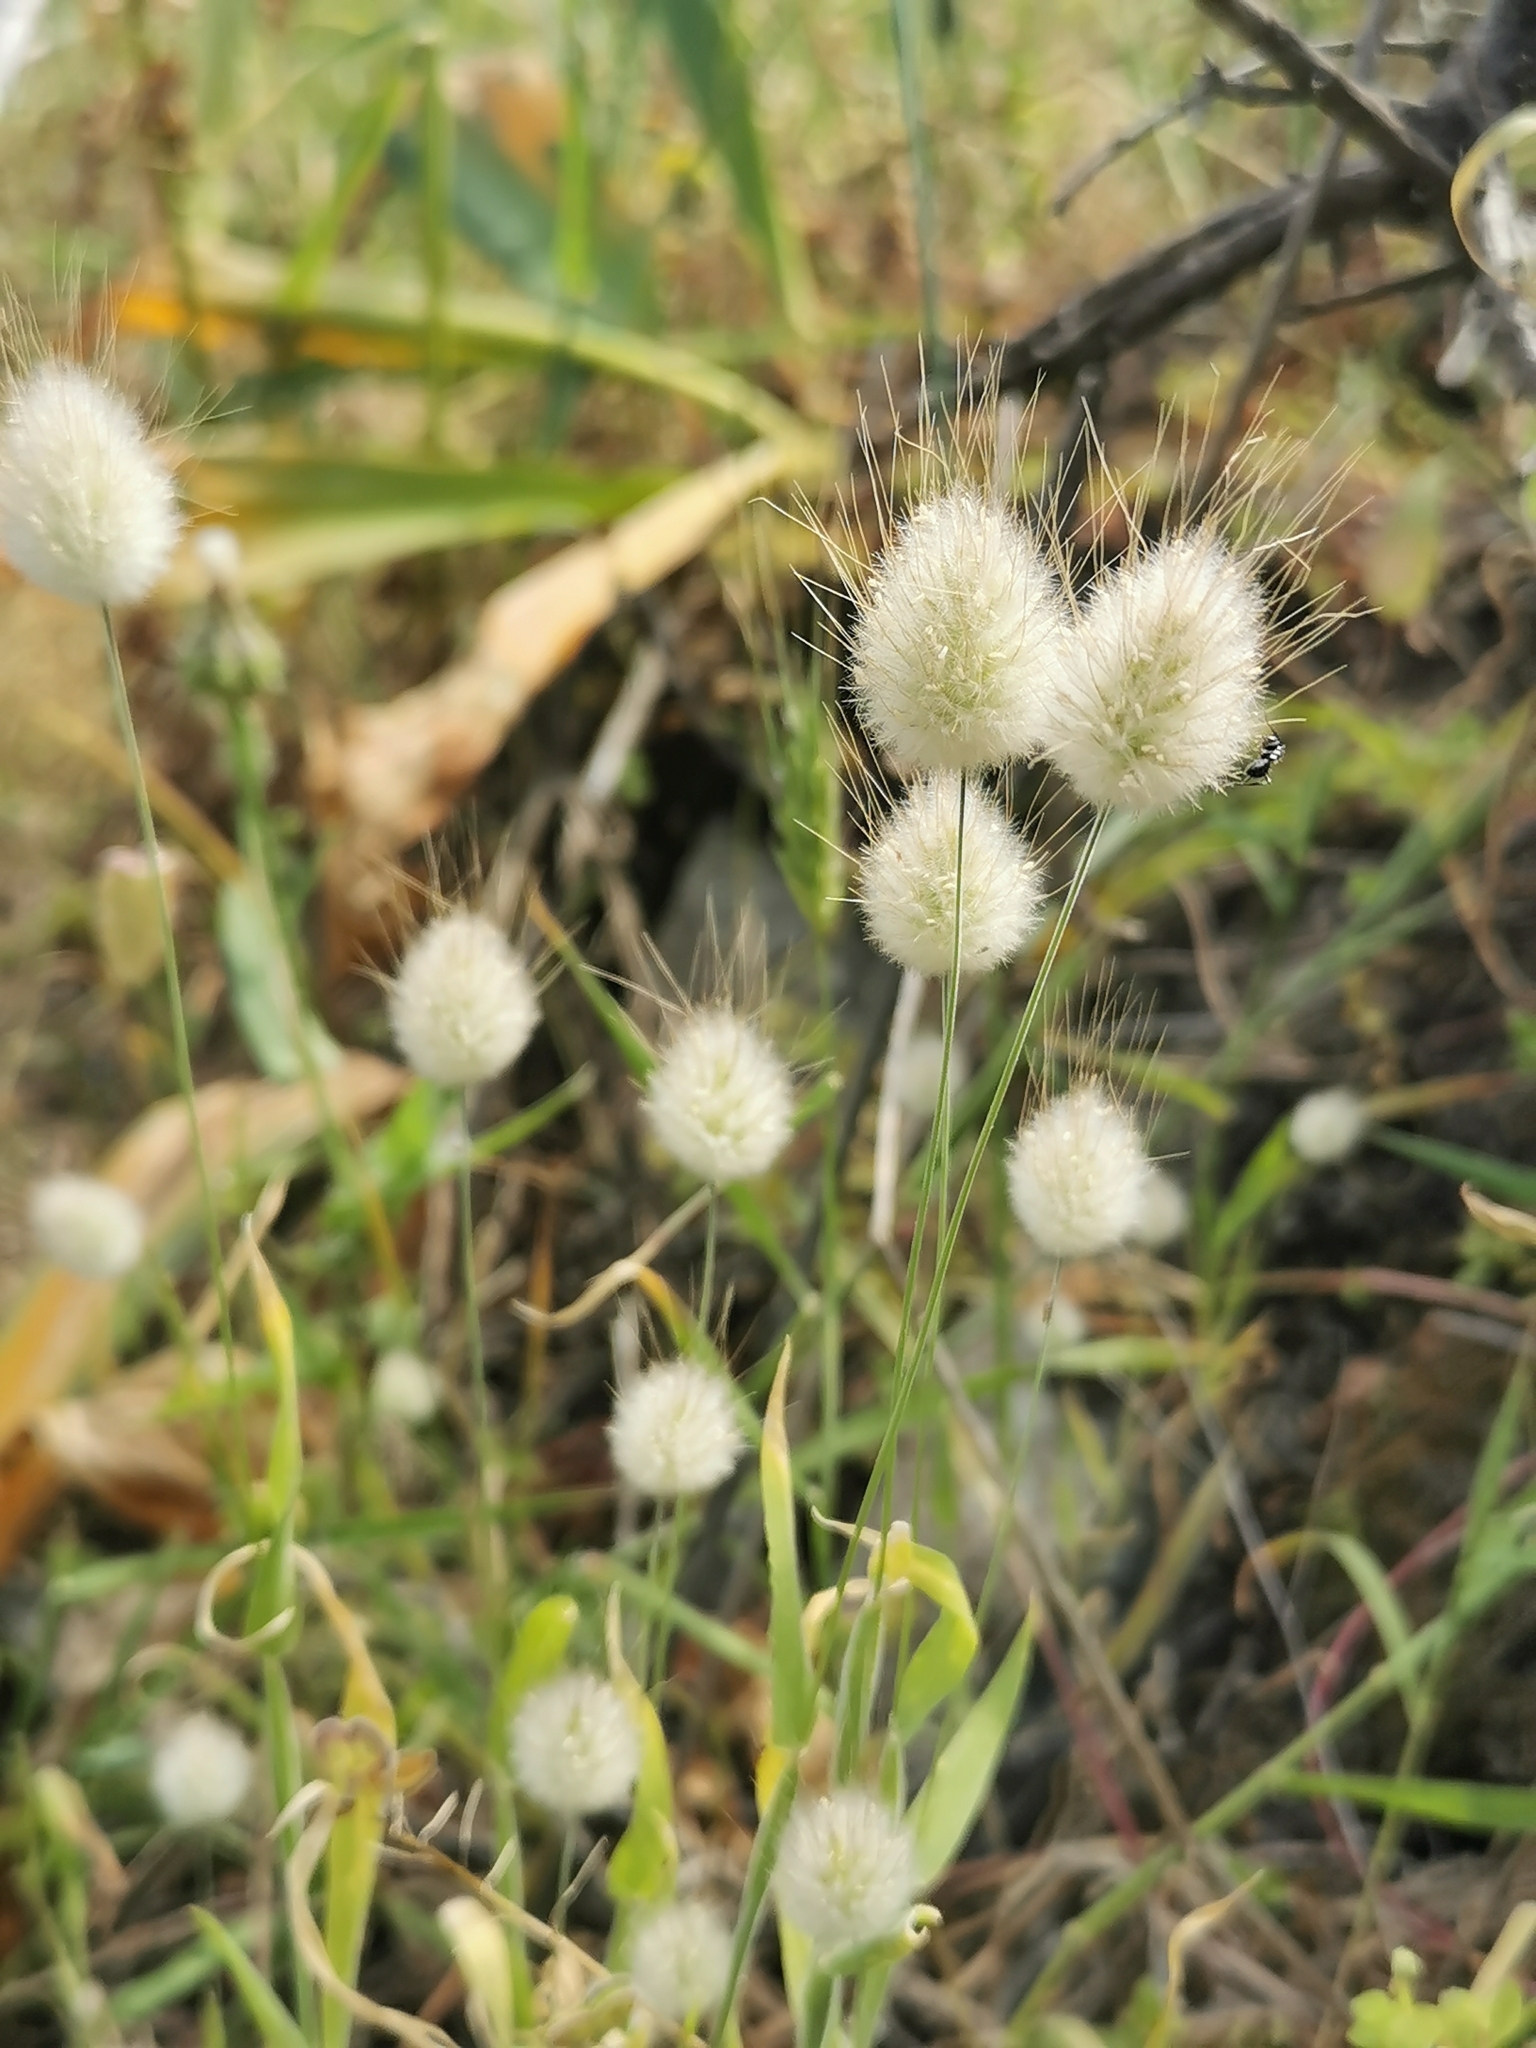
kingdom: Plantae
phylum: Tracheophyta
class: Liliopsida
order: Poales
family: Poaceae
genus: Lagurus
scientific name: Lagurus ovatus
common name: Hare's-tail
